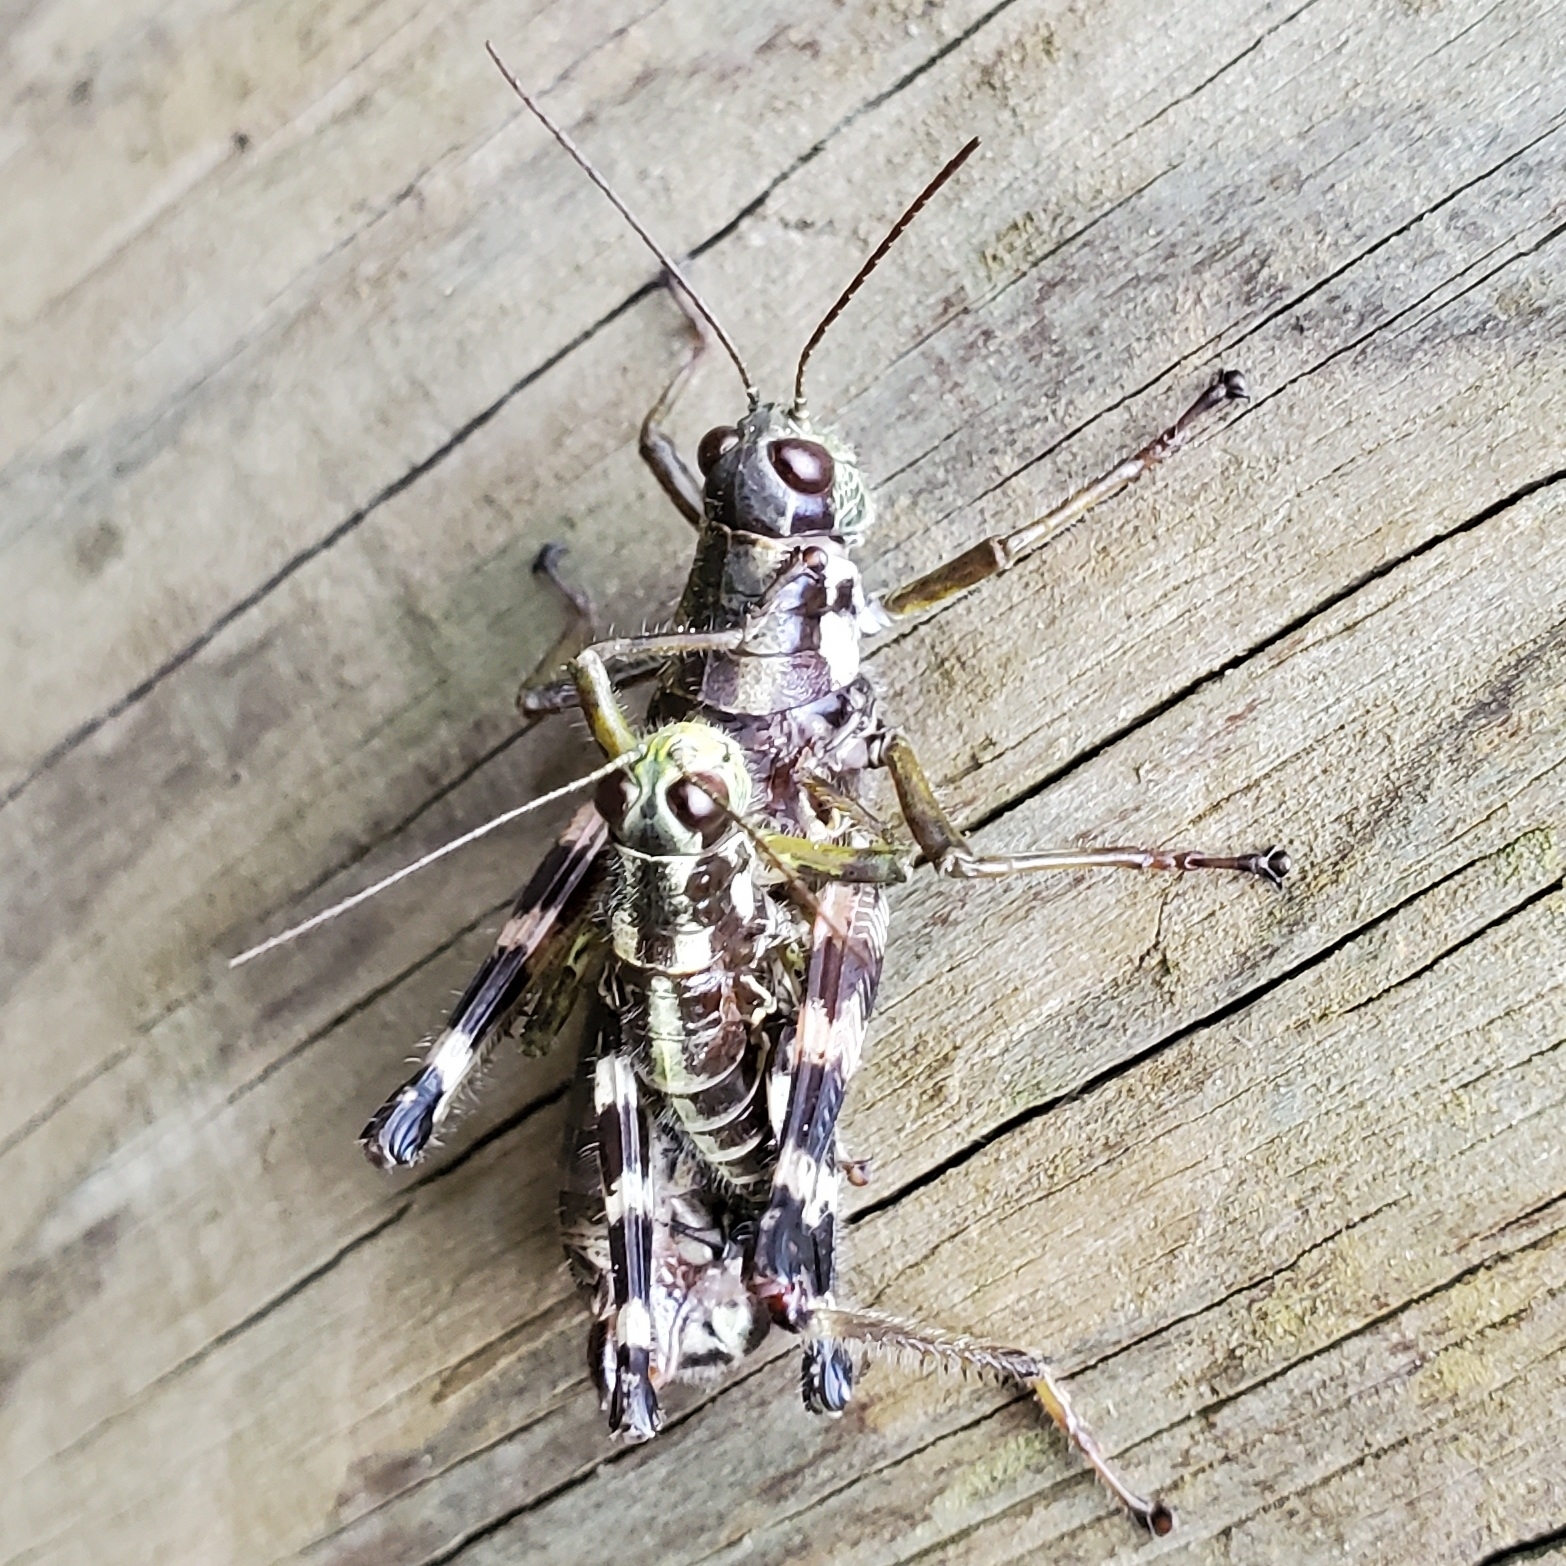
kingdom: Animalia
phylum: Arthropoda
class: Insecta
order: Orthoptera
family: Acrididae
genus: Booneacris
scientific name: Booneacris glacialis
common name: Wingless mountain grasshopper
